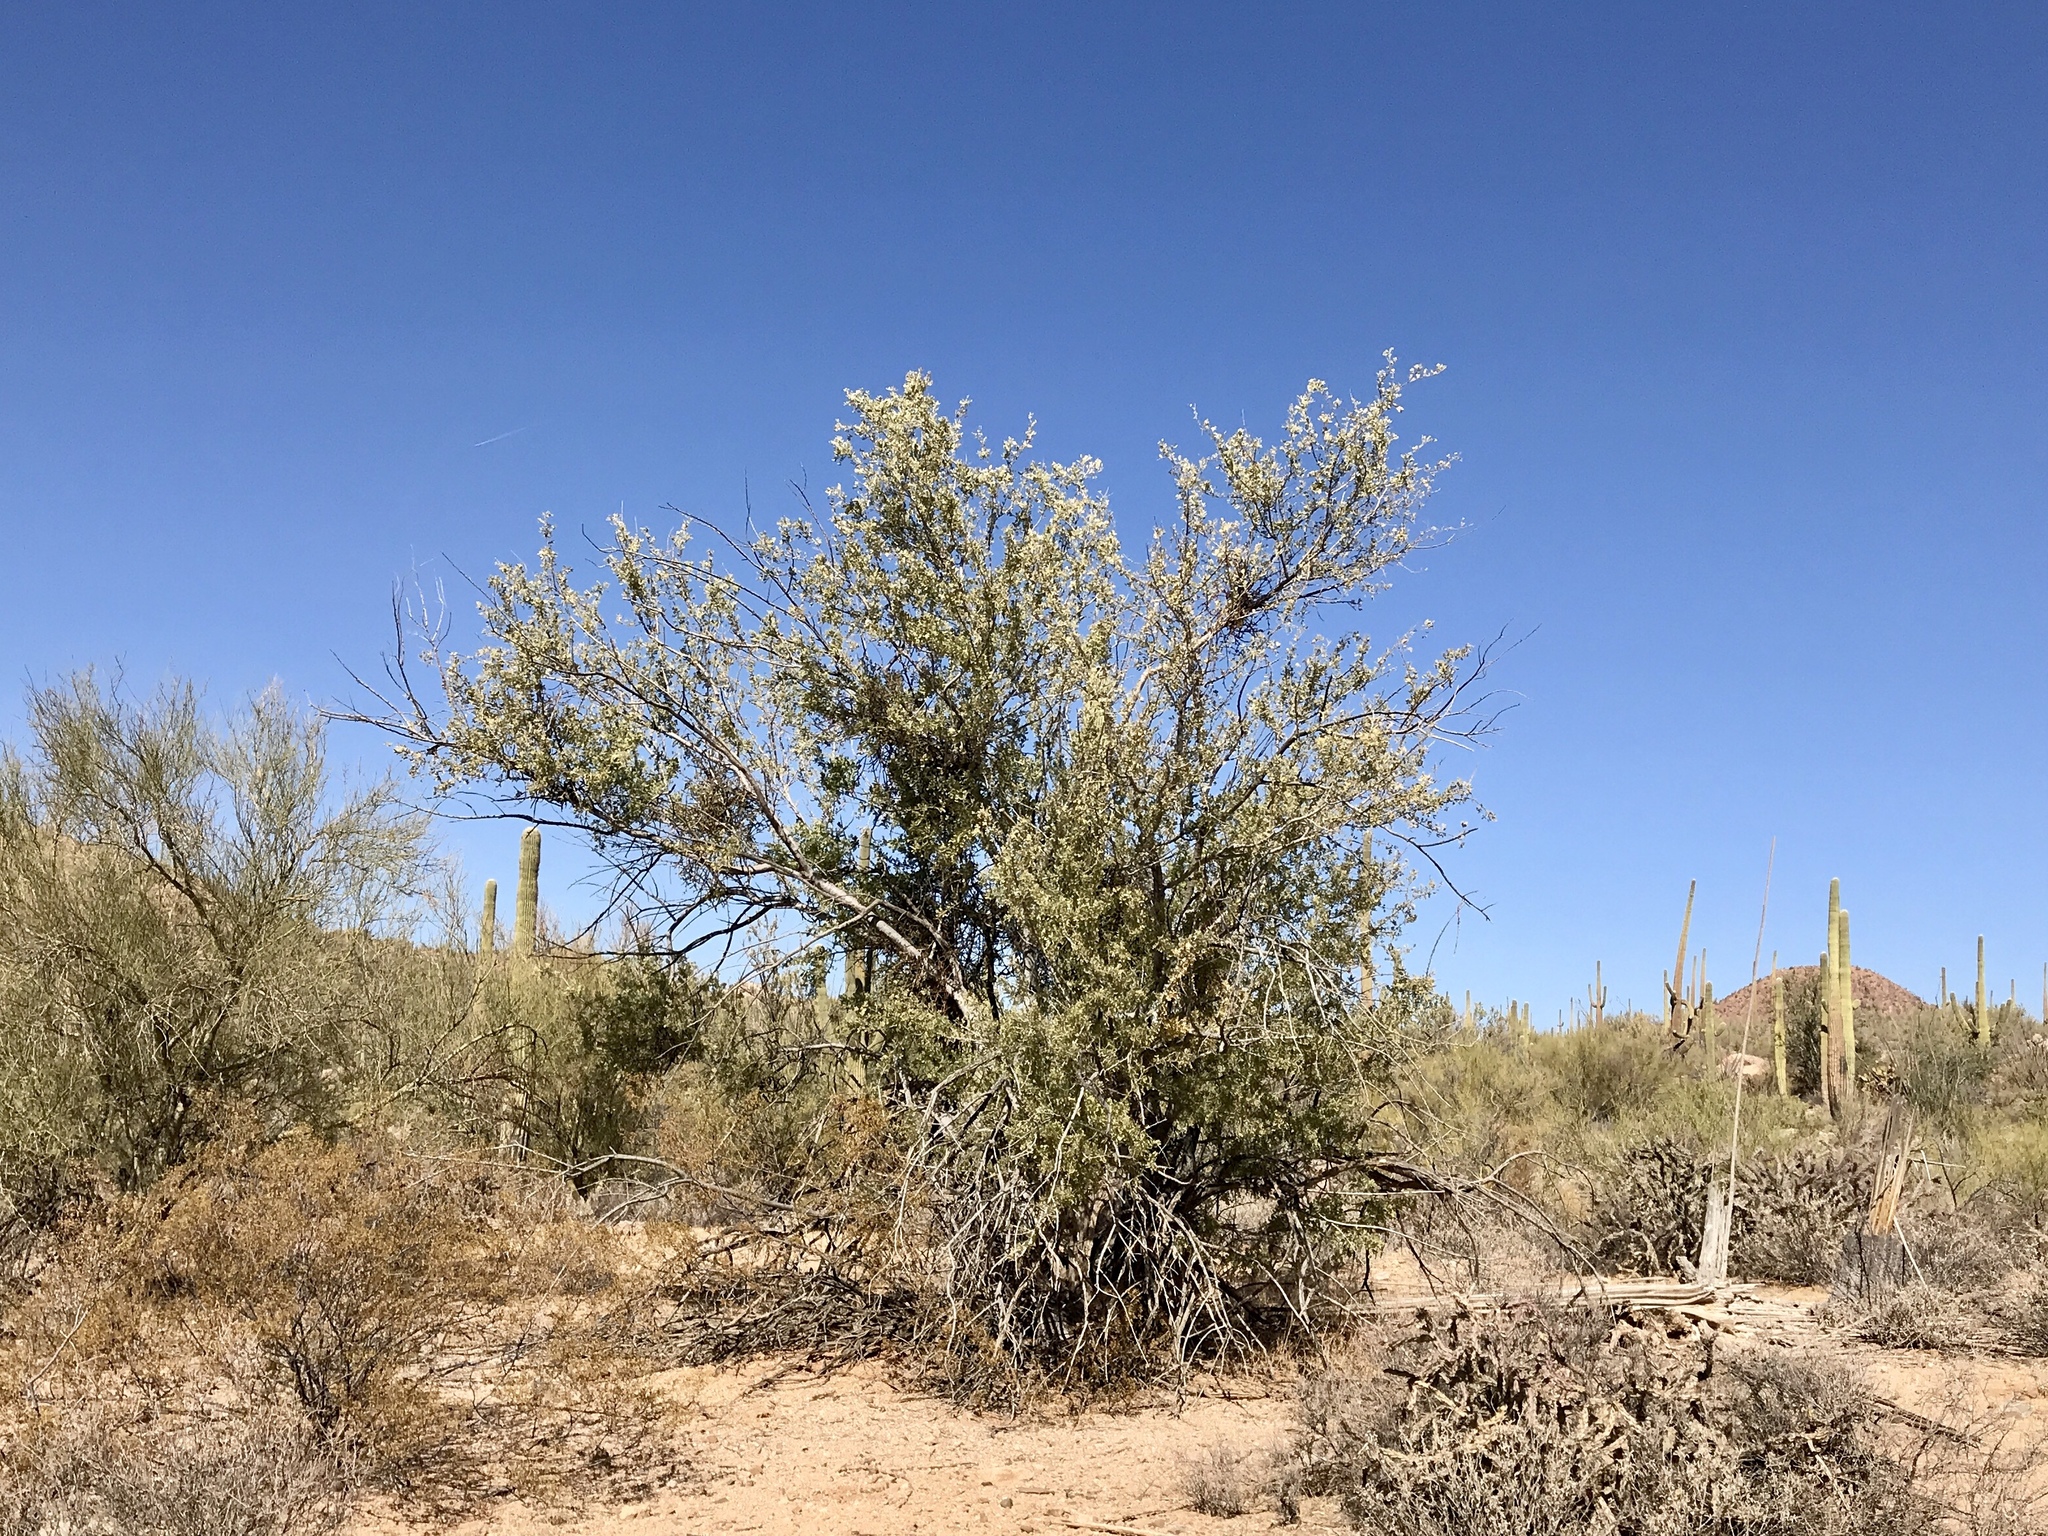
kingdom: Plantae
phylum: Tracheophyta
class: Magnoliopsida
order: Fabales
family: Fabaceae
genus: Olneya
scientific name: Olneya tesota
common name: Desert ironwood
